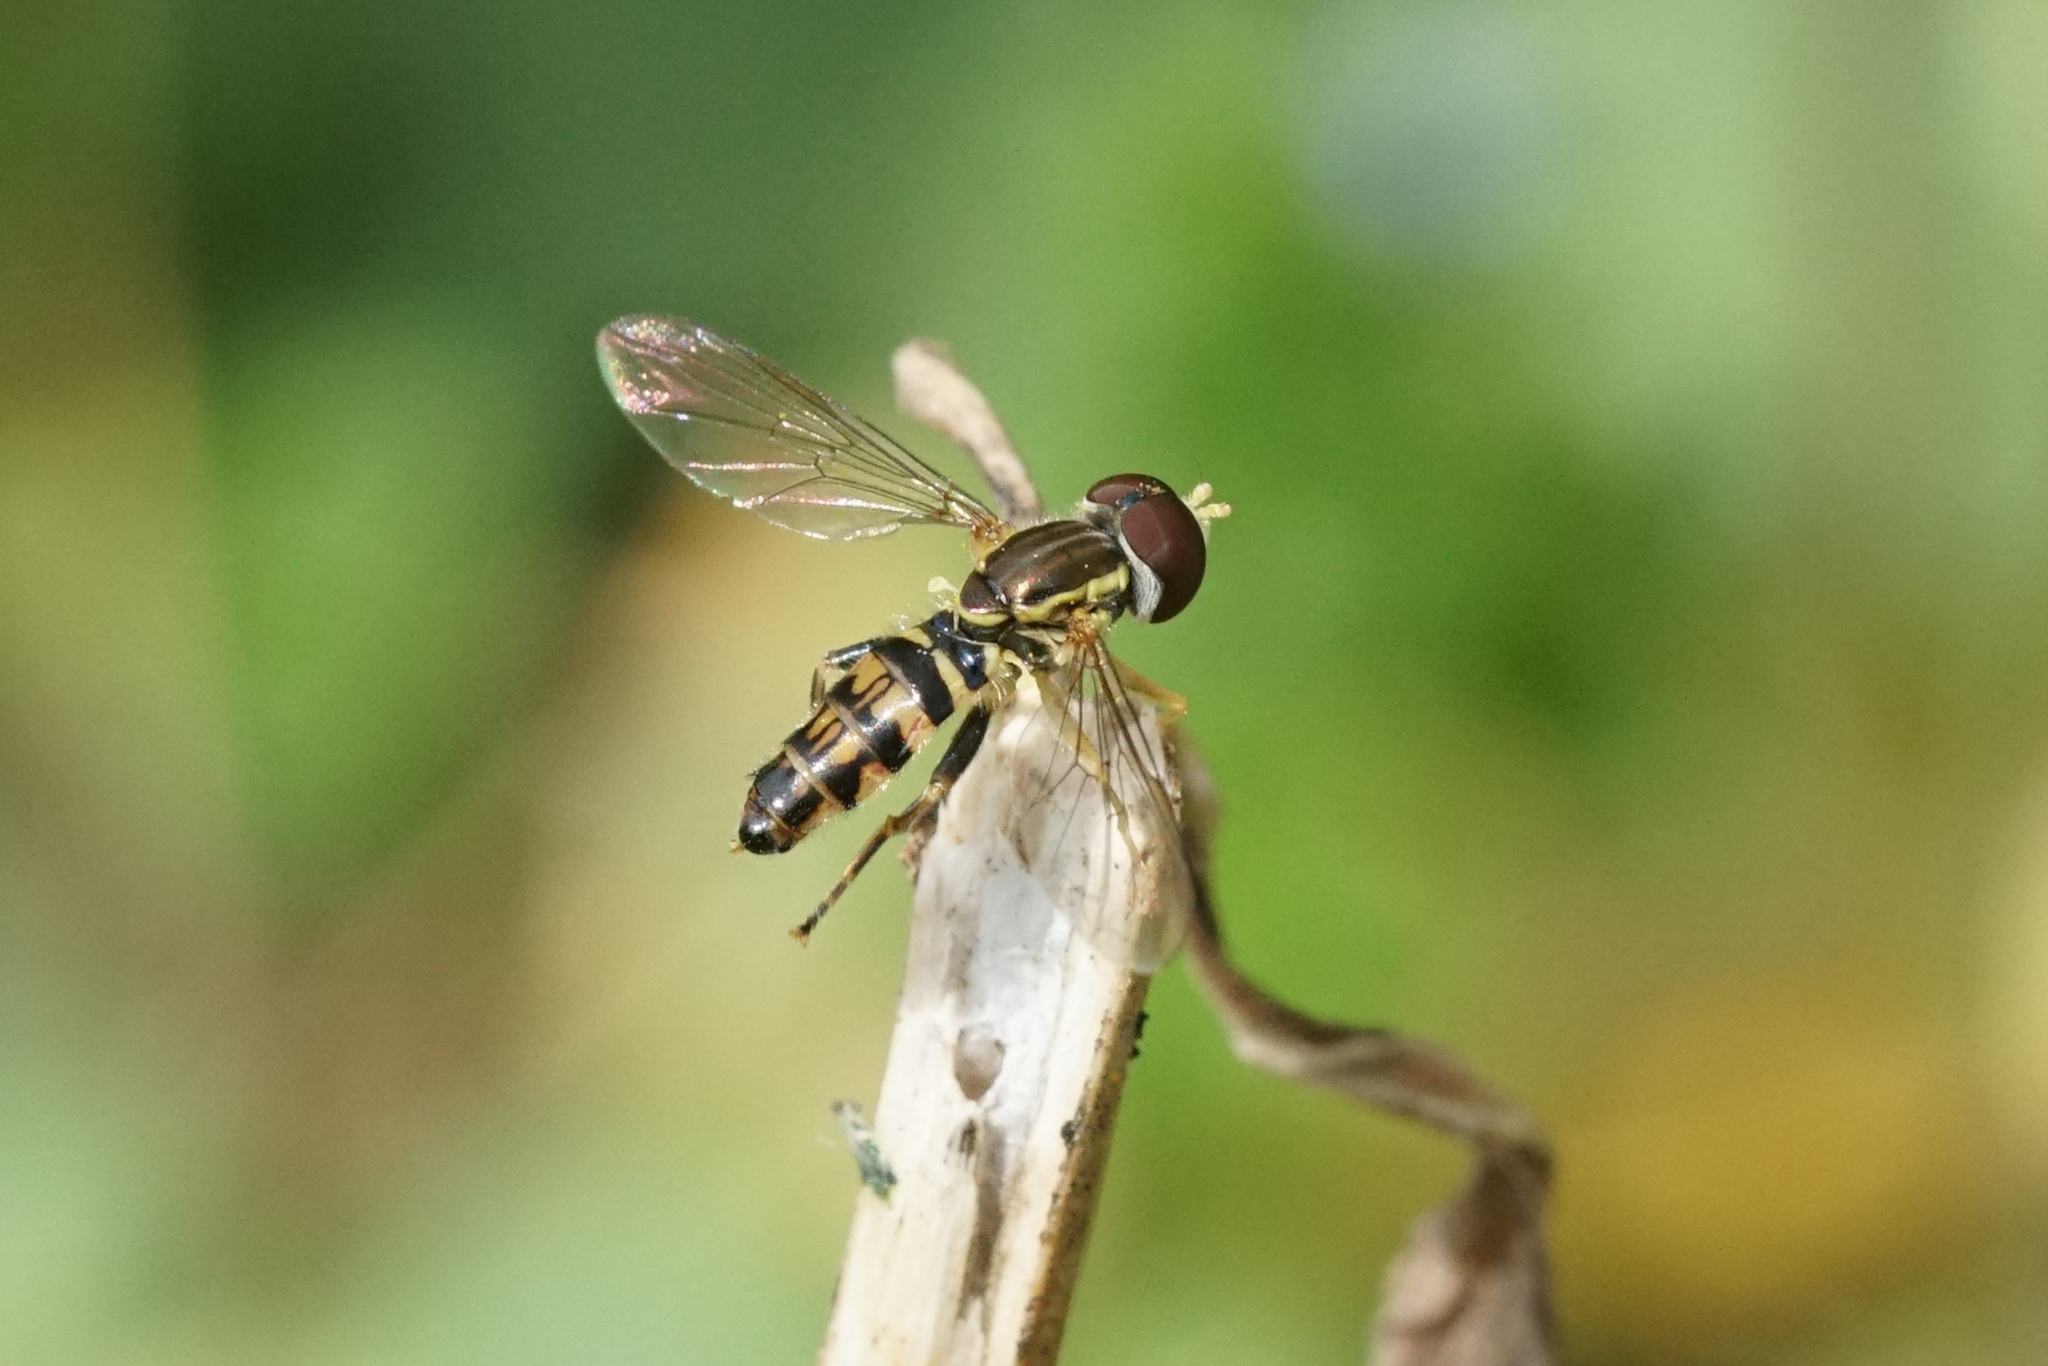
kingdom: Animalia
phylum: Arthropoda
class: Insecta
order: Diptera
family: Syrphidae
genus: Toxomerus
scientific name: Toxomerus geminatus
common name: Eastern calligrapher
